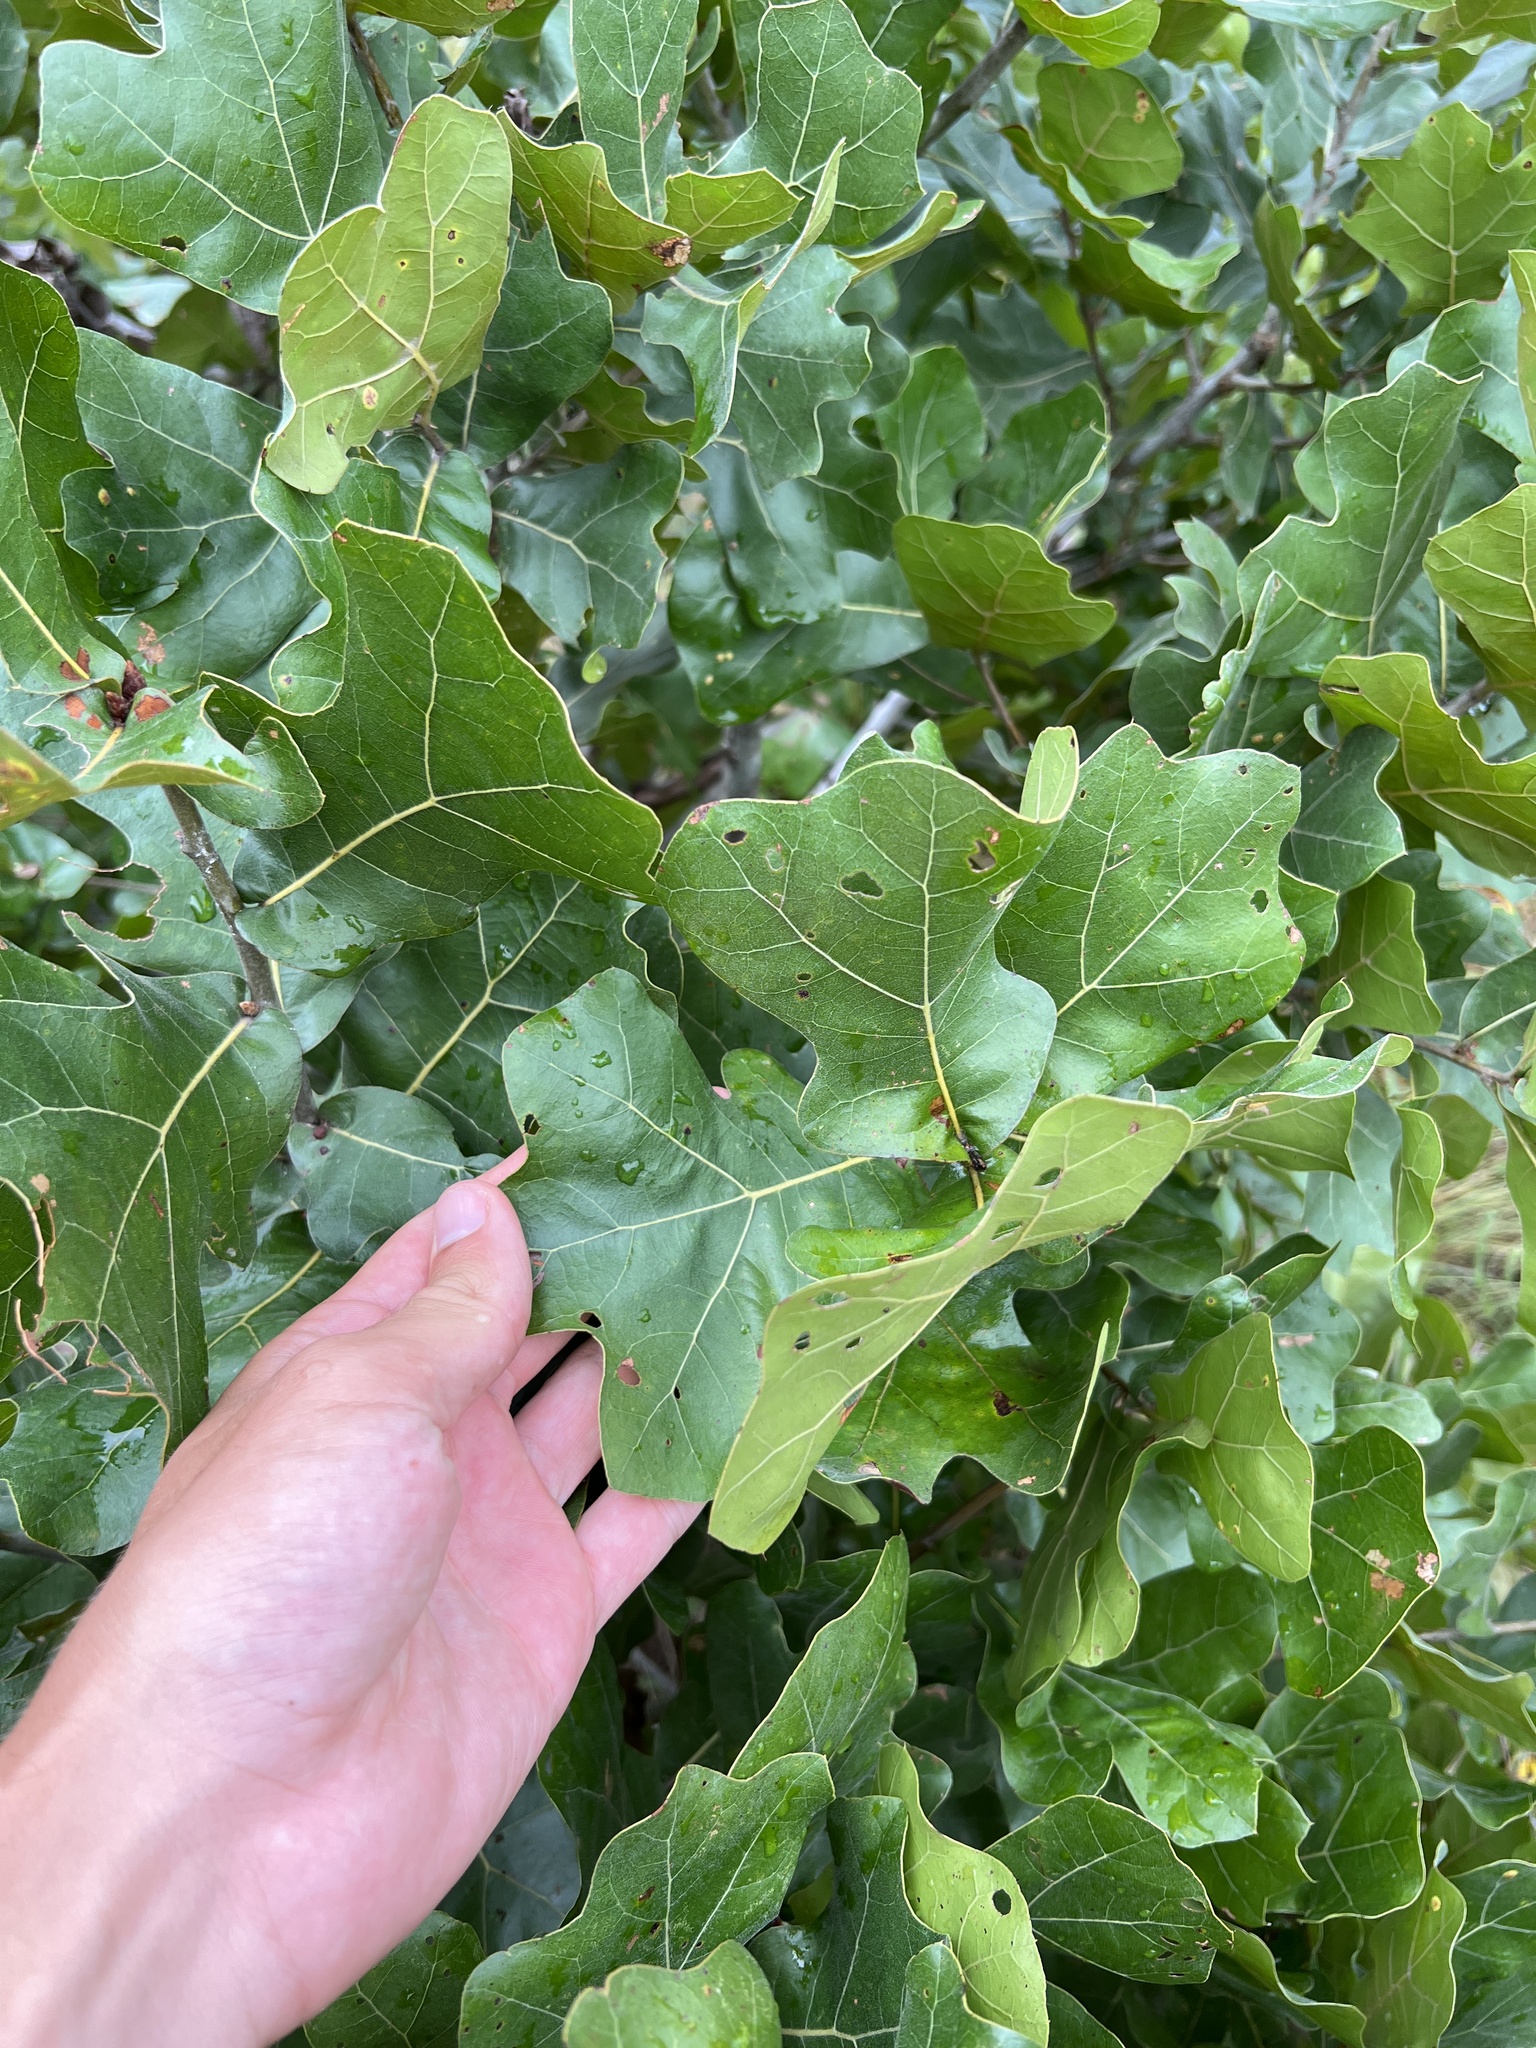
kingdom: Plantae
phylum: Tracheophyta
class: Magnoliopsida
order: Fagales
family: Fagaceae
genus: Quercus
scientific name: Quercus stellata
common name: Post oak
